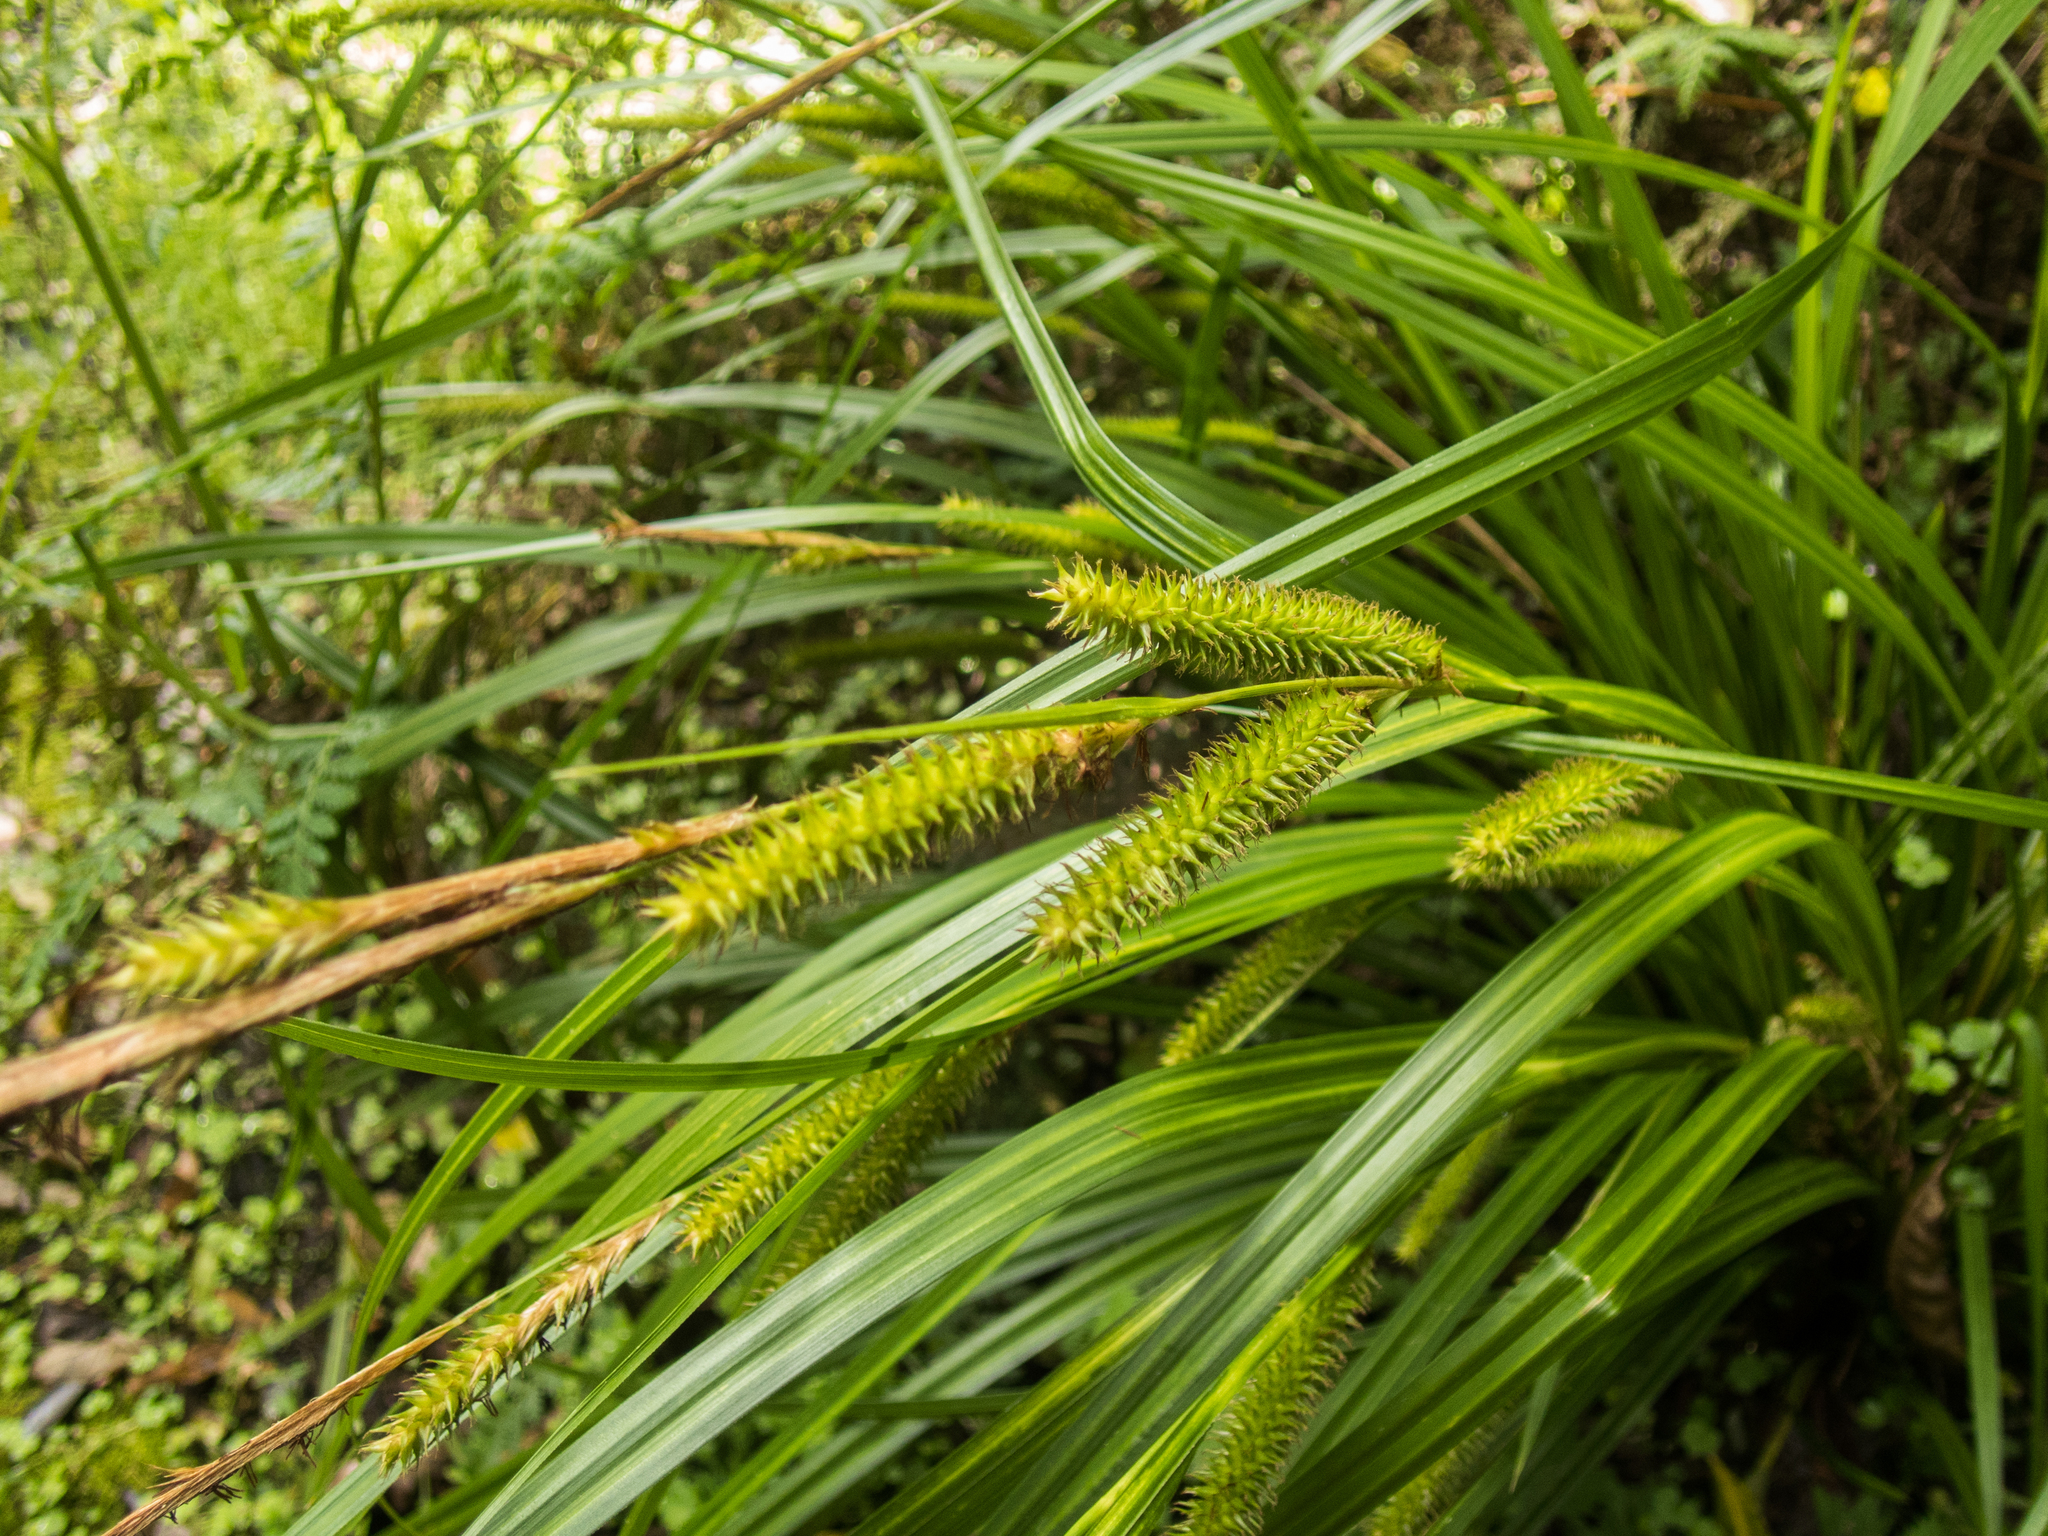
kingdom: Plantae
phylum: Tracheophyta
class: Liliopsida
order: Poales
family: Cyperaceae
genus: Carex
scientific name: Carex forsteri
